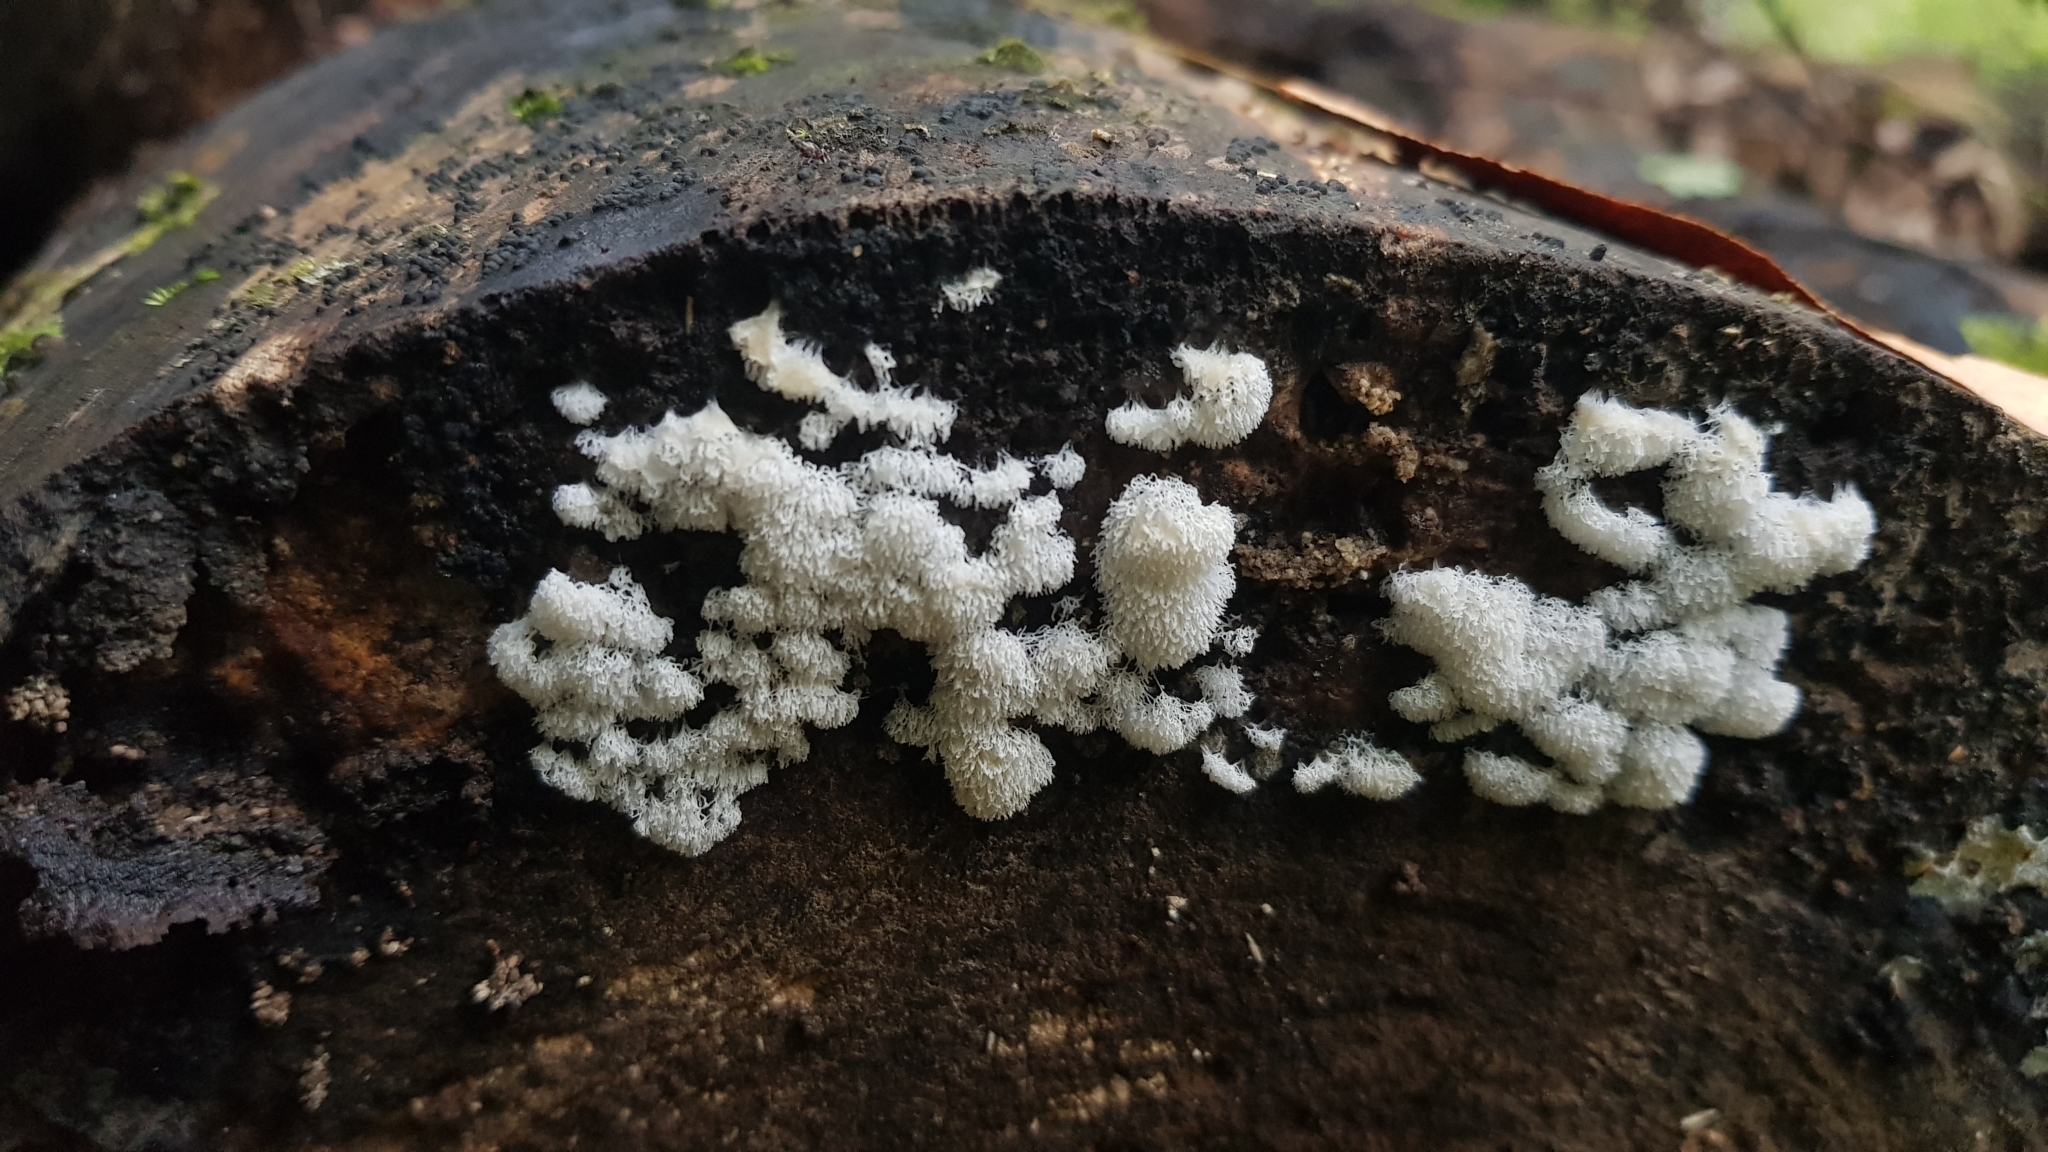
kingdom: Protozoa
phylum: Mycetozoa
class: Protosteliomycetes
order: Ceratiomyxales
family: Ceratiomyxaceae
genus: Ceratiomyxa
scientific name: Ceratiomyxa fruticulosa
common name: Honeycomb coral slime mold
